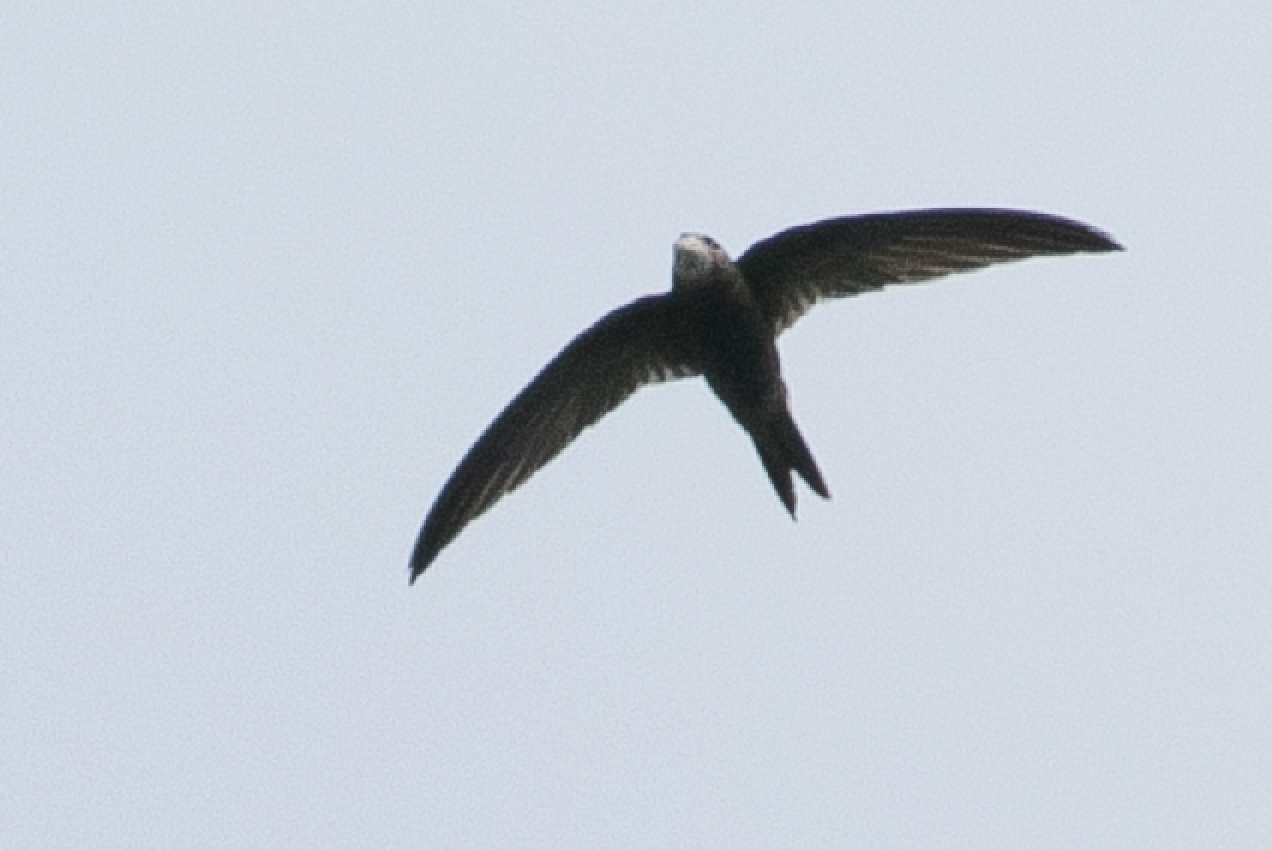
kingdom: Animalia
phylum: Chordata
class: Aves
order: Apodiformes
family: Apodidae
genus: Apus
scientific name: Apus apus
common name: Common swift
